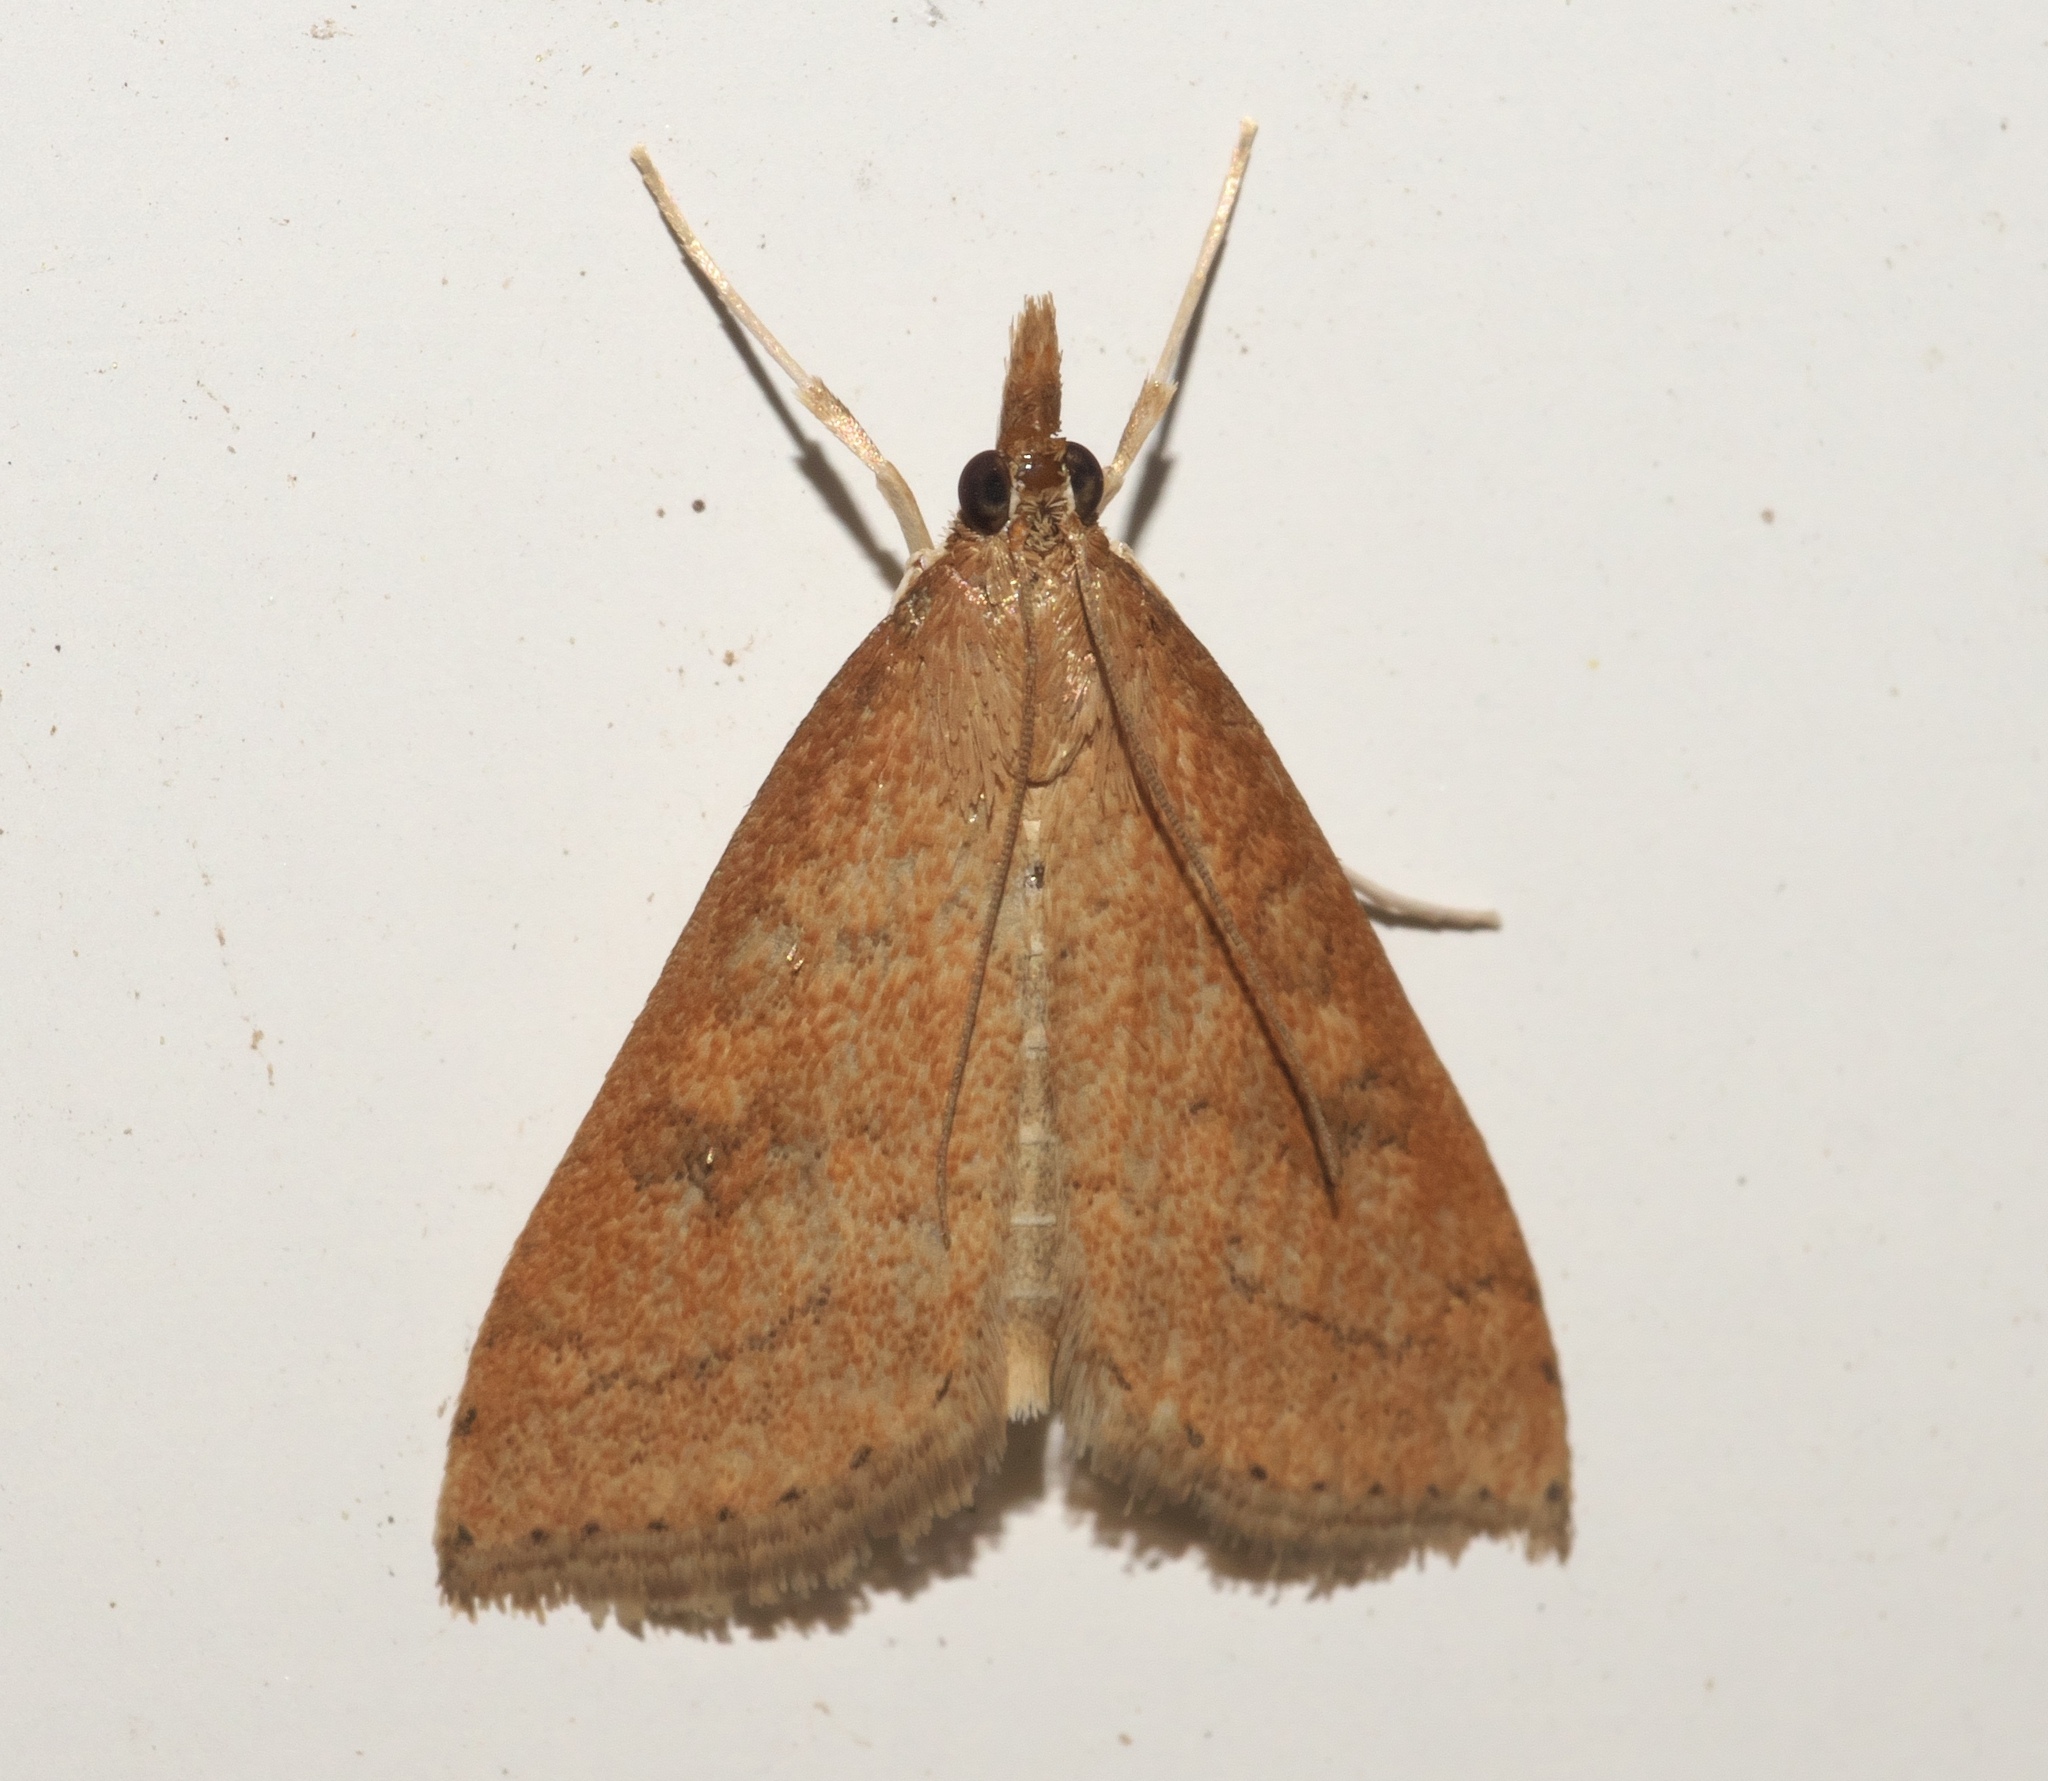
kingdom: Animalia
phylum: Arthropoda
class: Insecta
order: Lepidoptera
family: Crambidae
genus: Udea
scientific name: Udea rubigalis
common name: Celery leaftier moth
